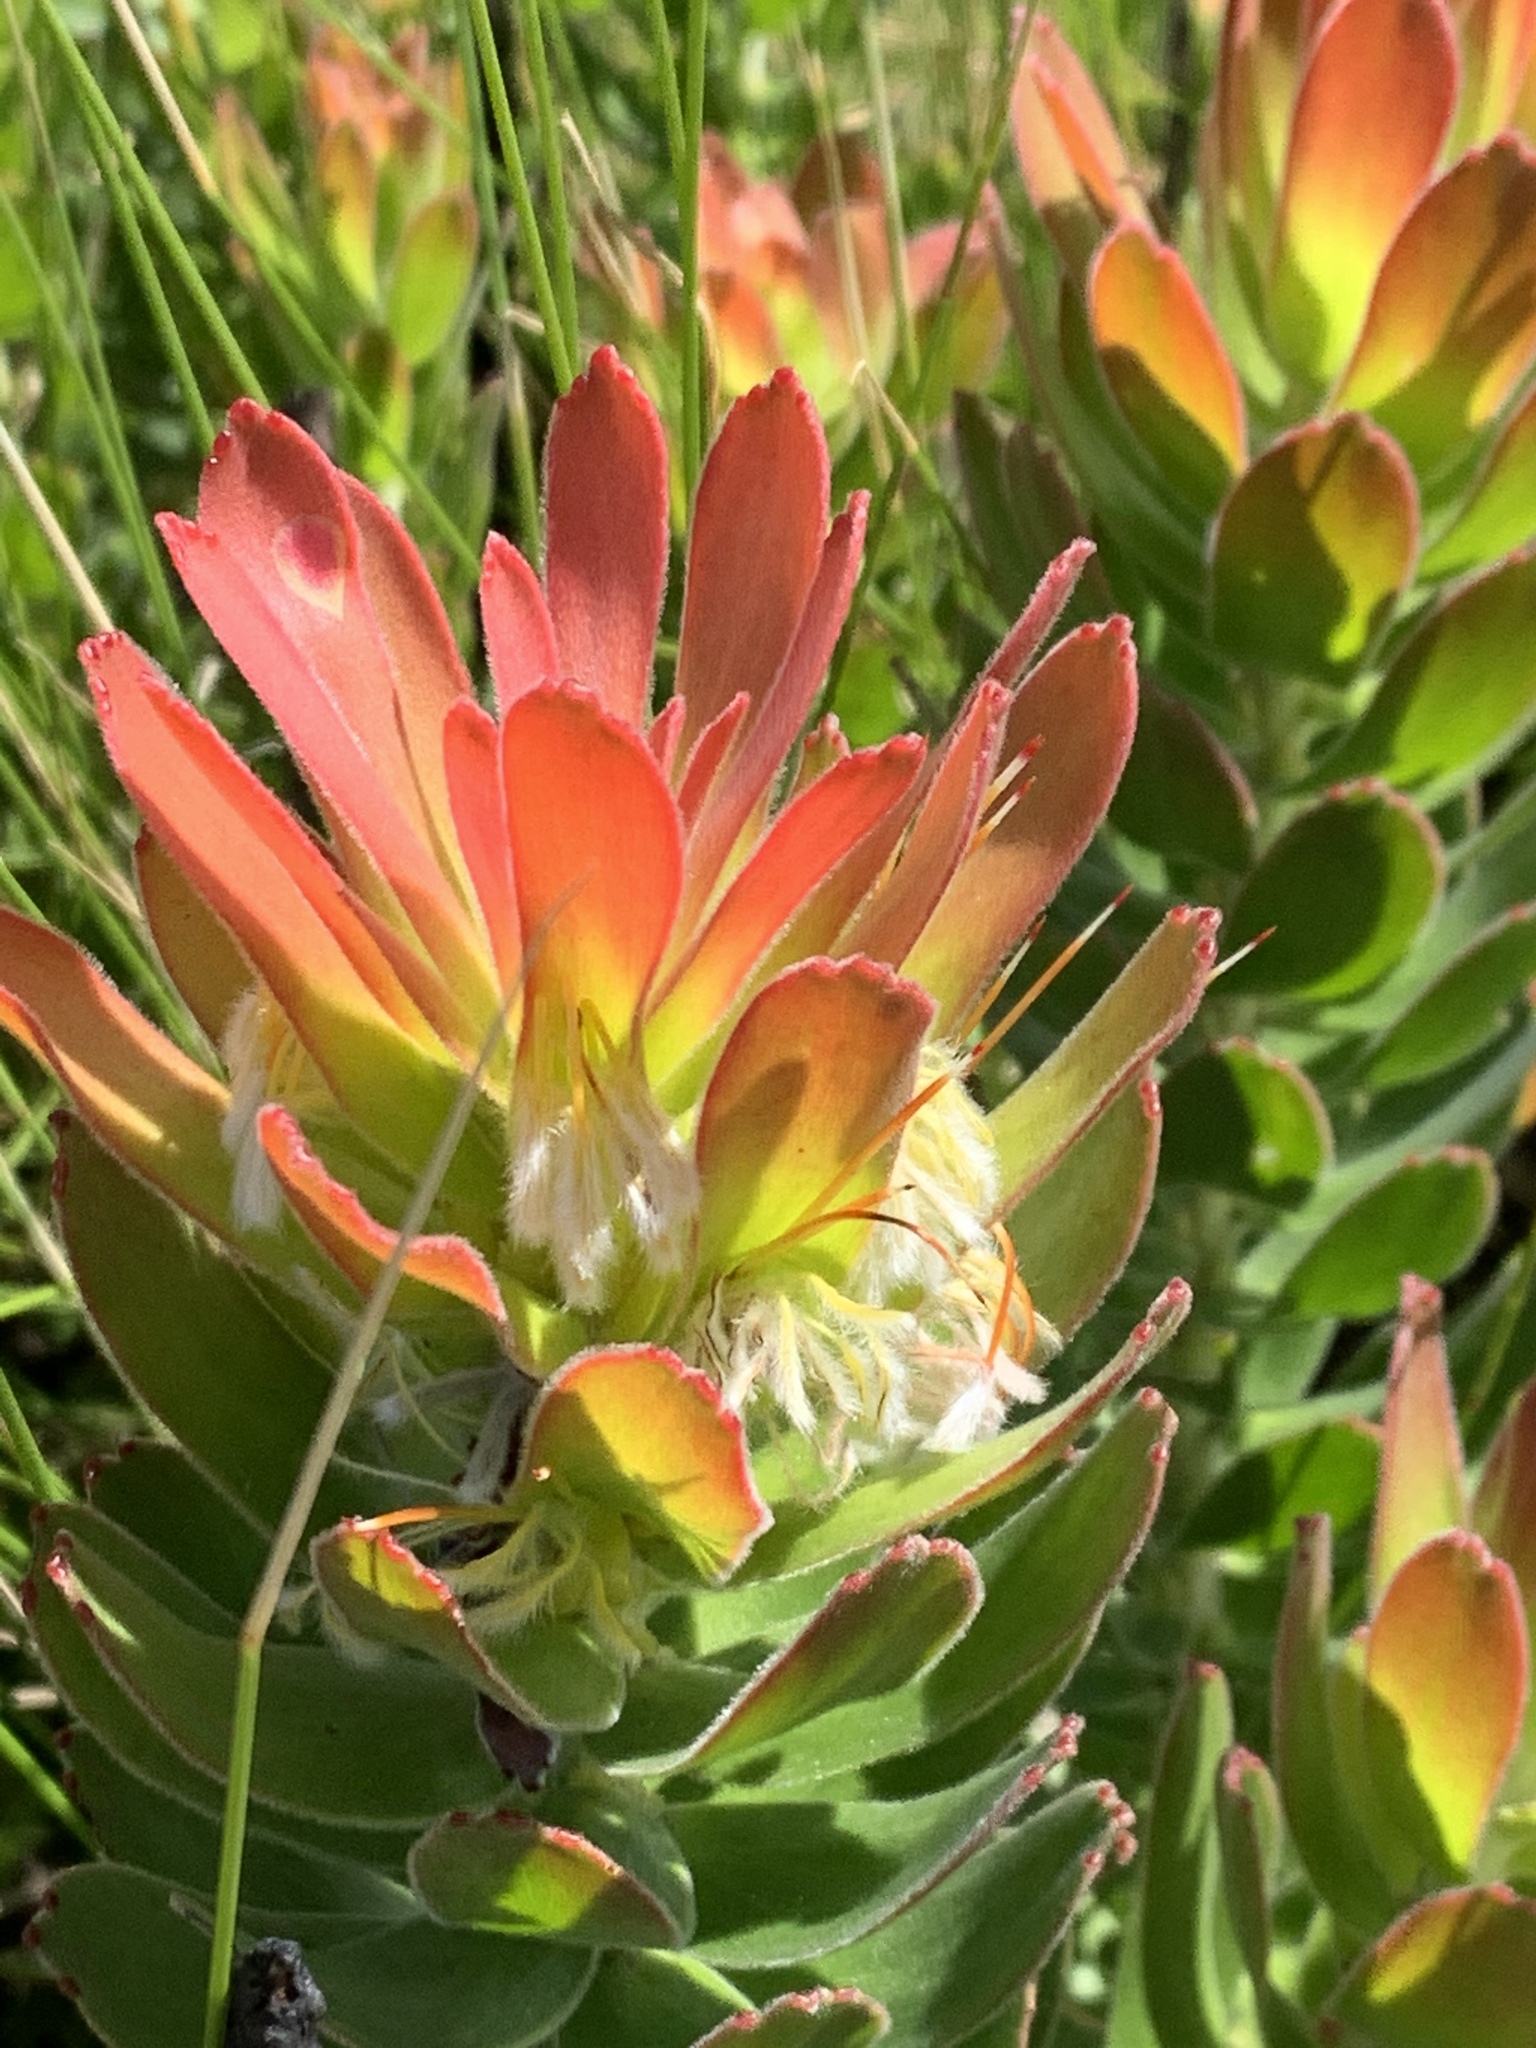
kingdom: Plantae
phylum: Tracheophyta
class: Magnoliopsida
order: Proteales
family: Proteaceae
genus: Mimetes
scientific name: Mimetes cucullatus
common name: Common pagoda
